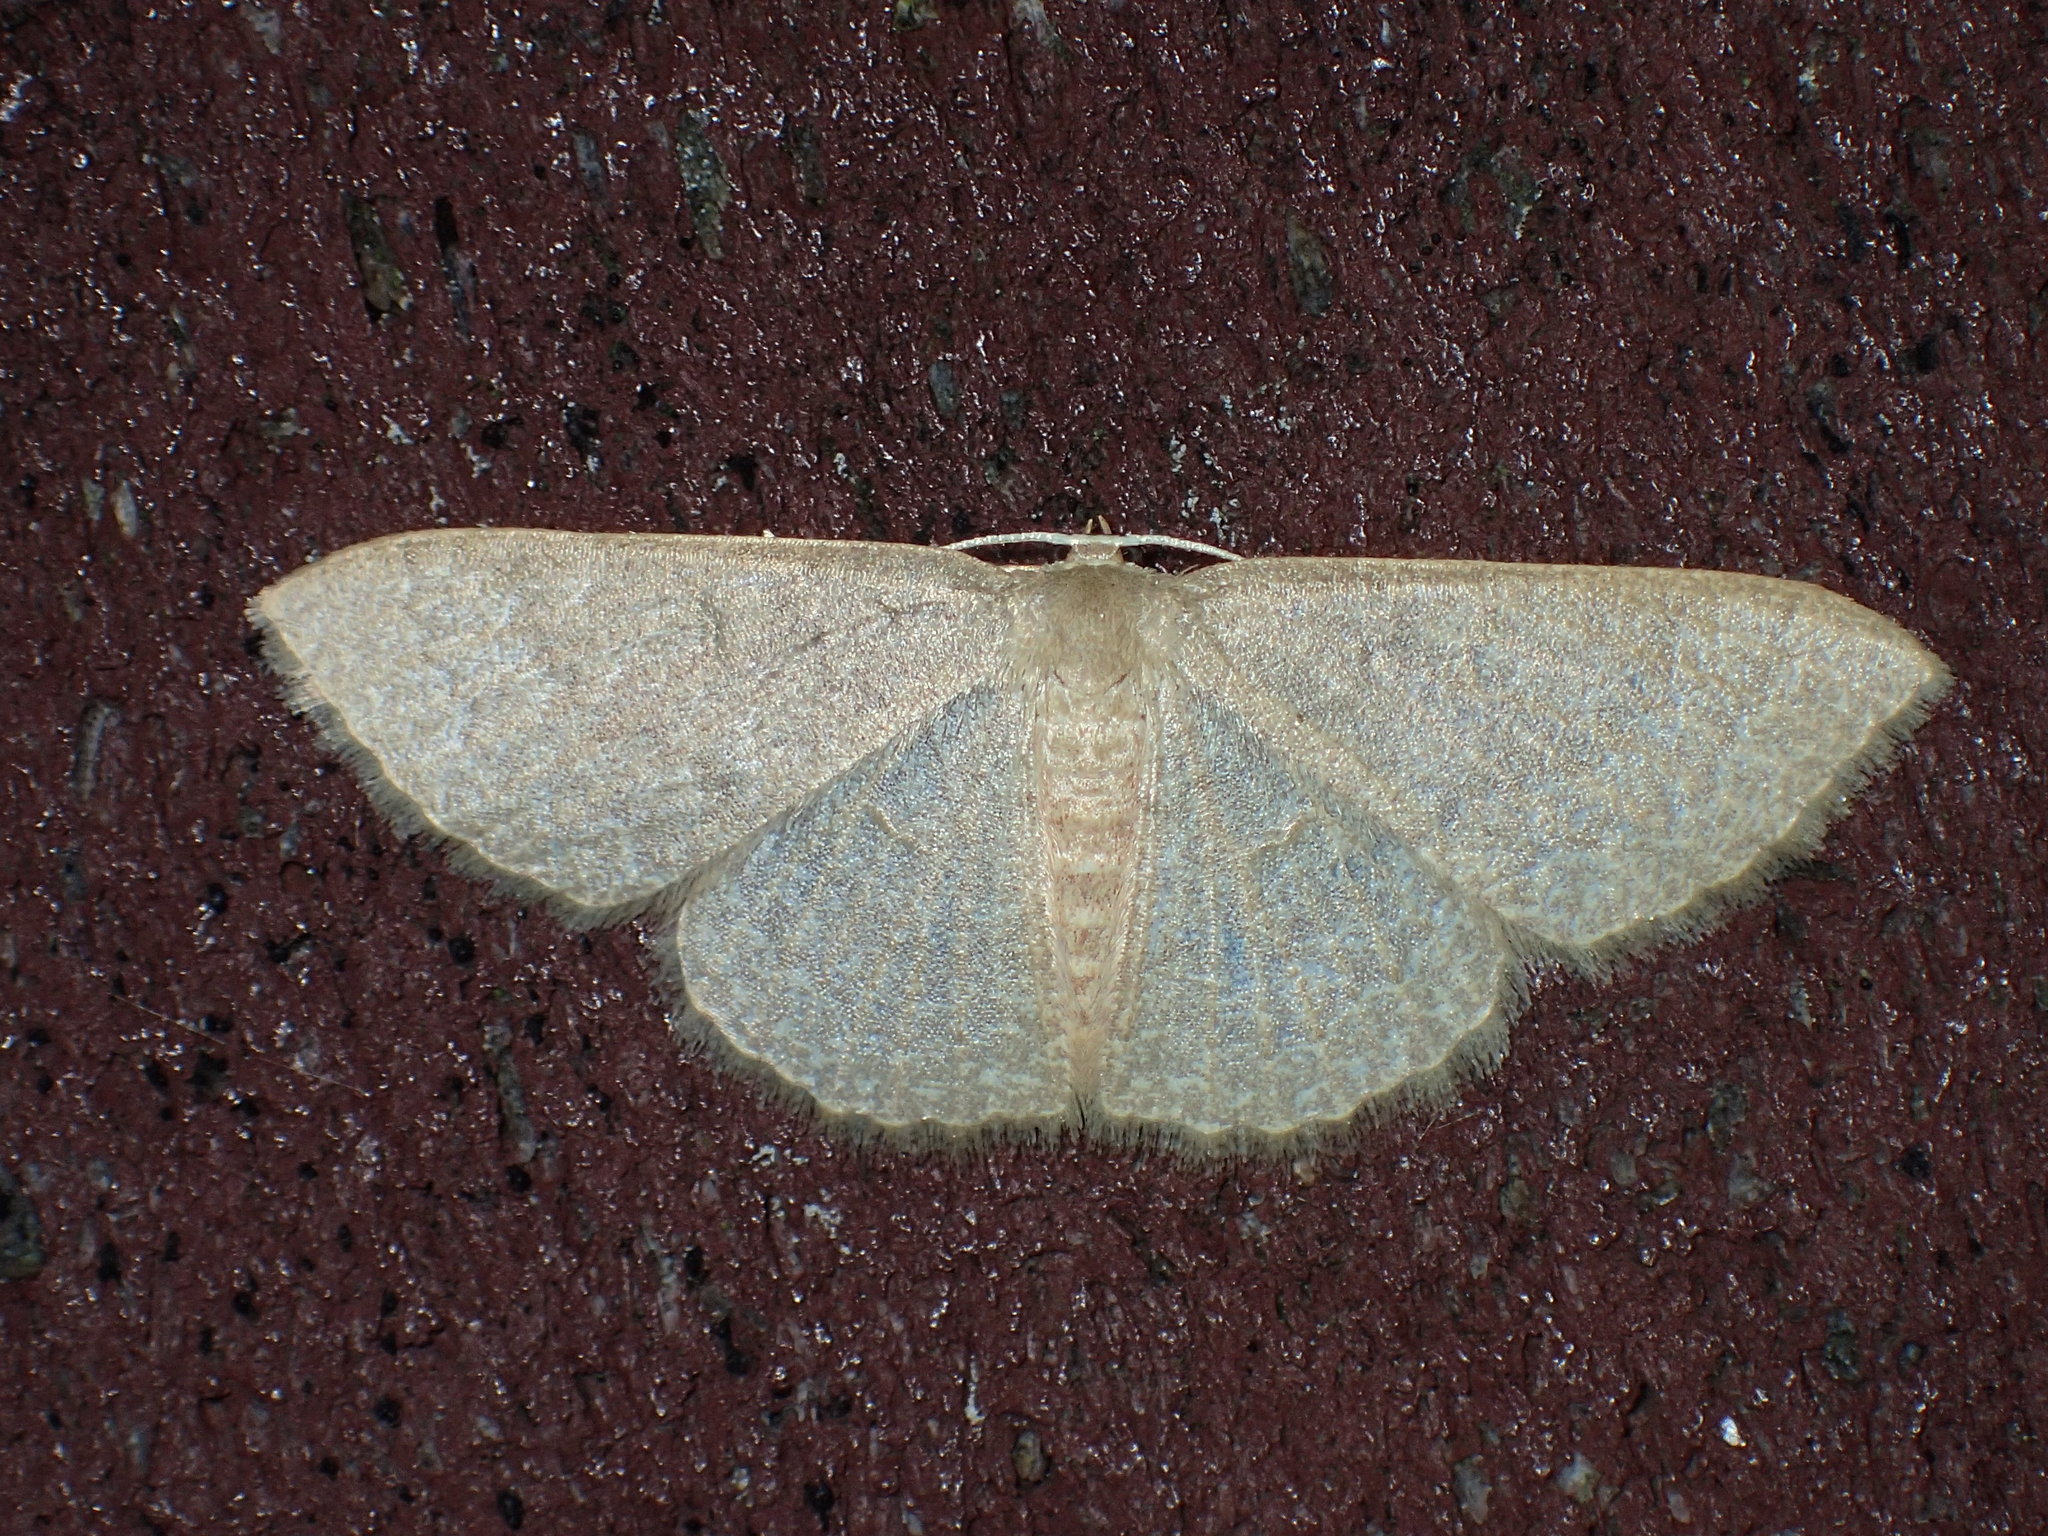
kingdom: Animalia
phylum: Arthropoda
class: Insecta
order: Lepidoptera
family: Geometridae
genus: Leptostales
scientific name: Leptostales pannaria
